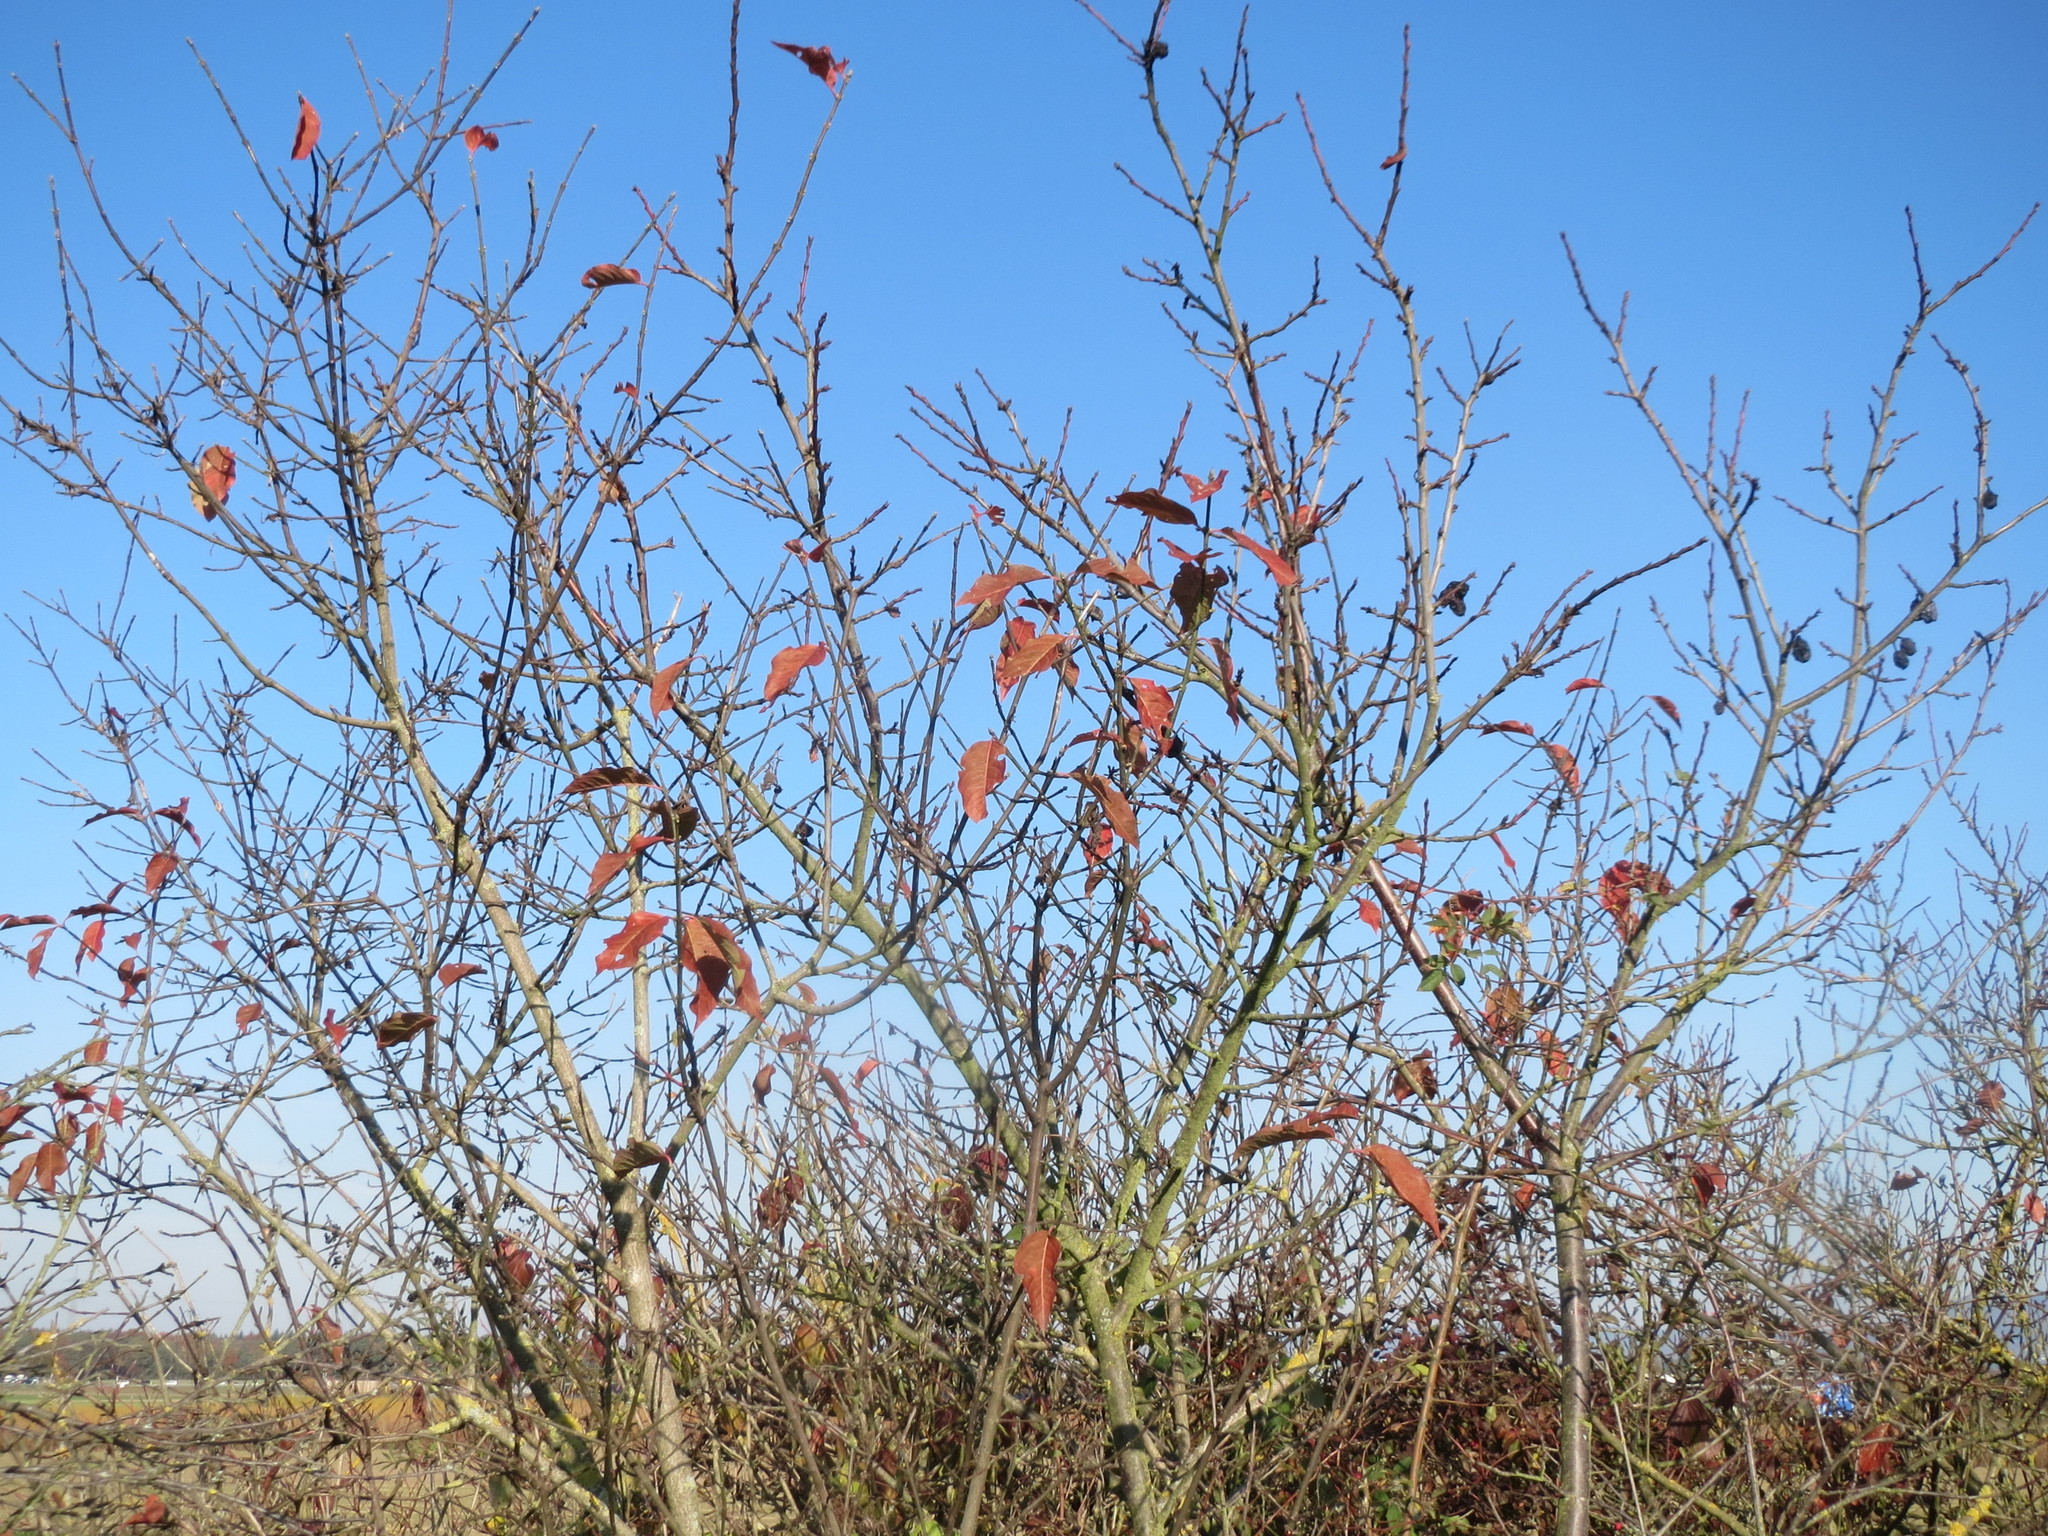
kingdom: Plantae
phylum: Tracheophyta
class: Magnoliopsida
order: Rosales
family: Rosaceae
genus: Prunus
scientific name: Prunus spinosa
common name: Blackthorn
